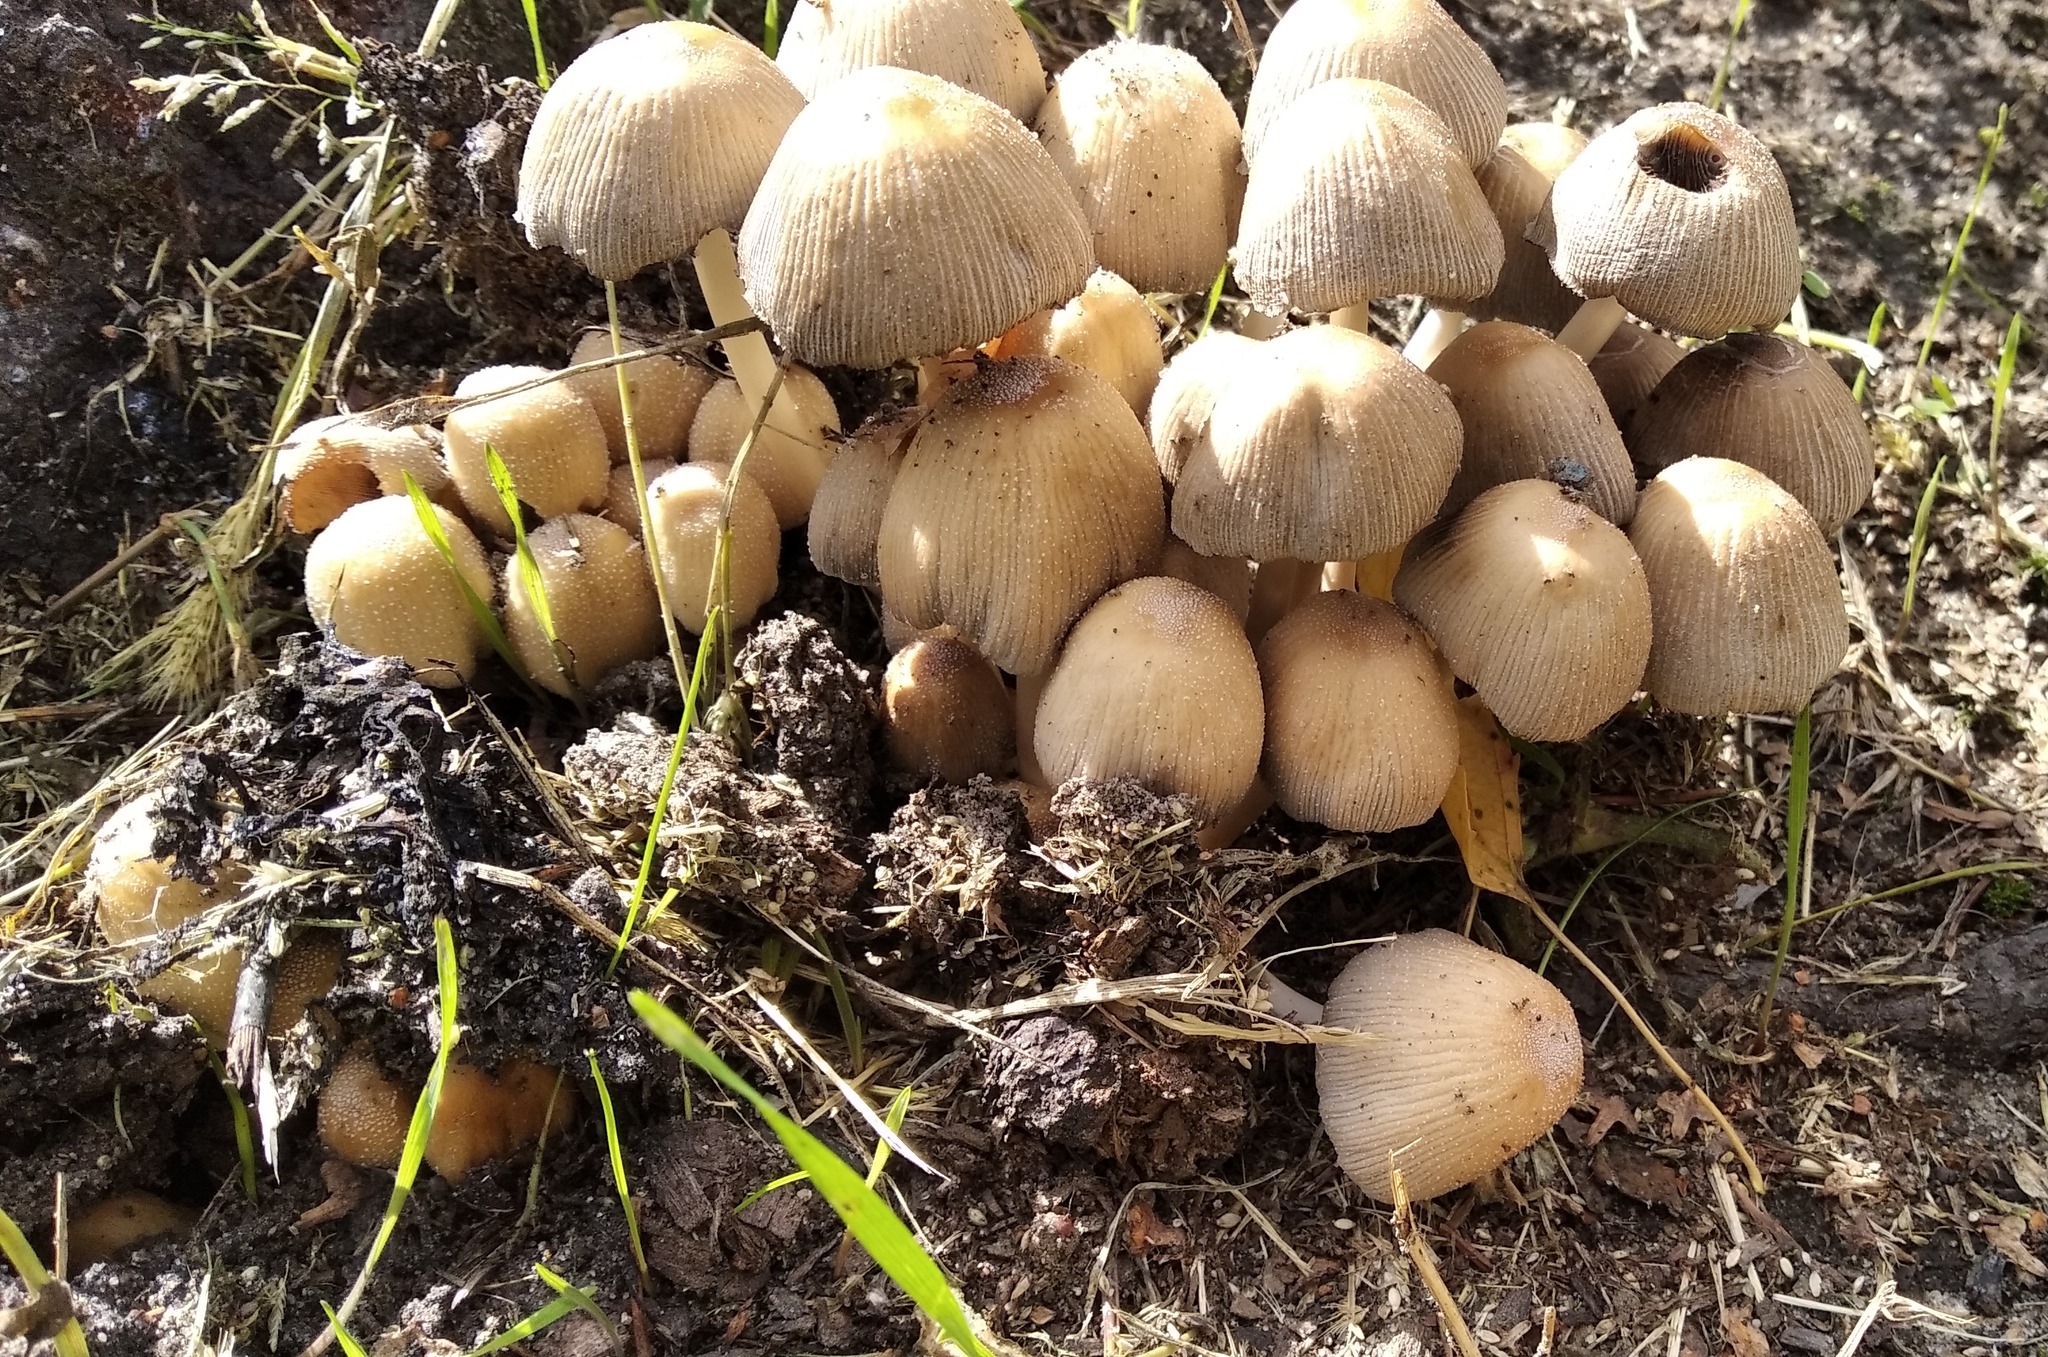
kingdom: Fungi
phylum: Basidiomycota
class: Agaricomycetes
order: Agaricales
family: Psathyrellaceae
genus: Coprinellus
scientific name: Coprinellus micaceus
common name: Glistening ink-cap
